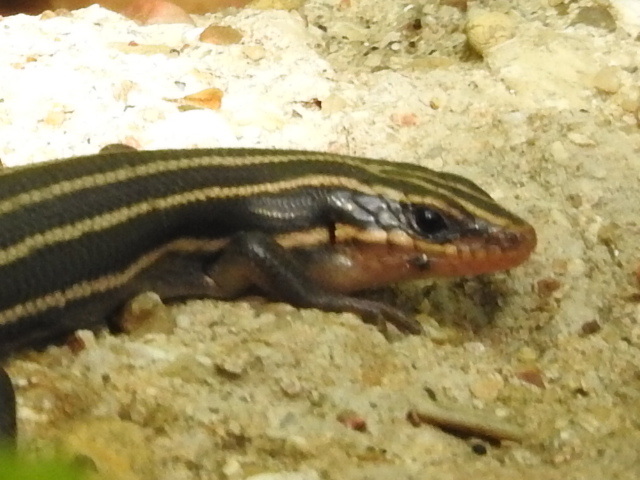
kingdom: Animalia
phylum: Chordata
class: Squamata
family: Scincidae
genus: Plestiodon
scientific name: Plestiodon fasciatus
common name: Five-lined skink
